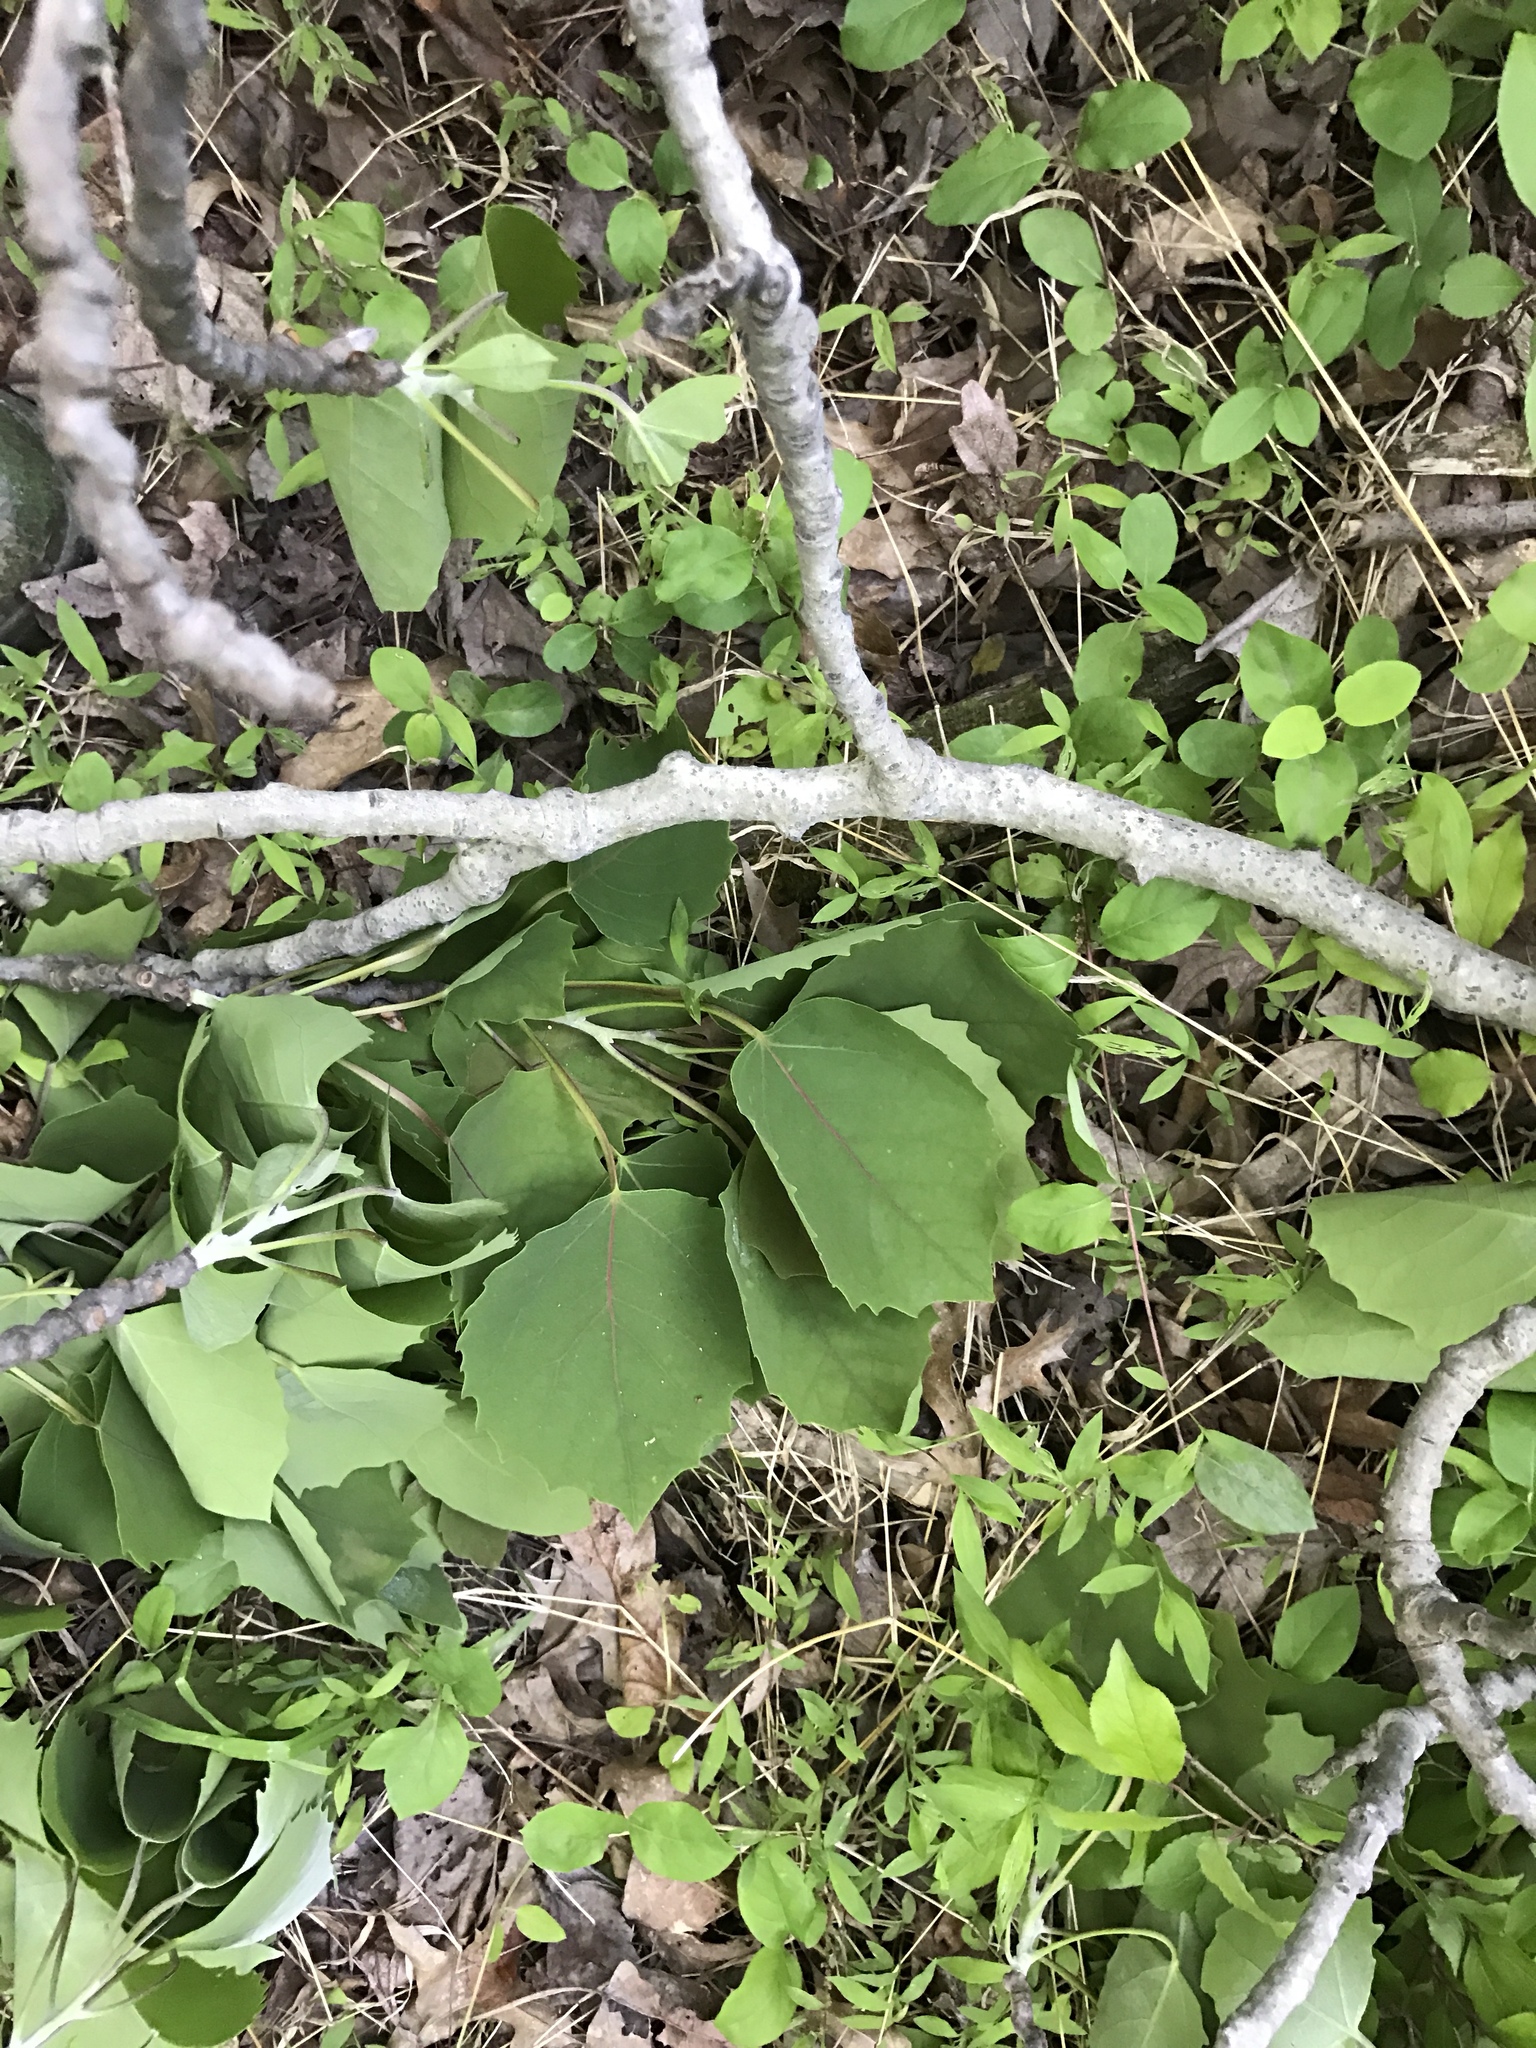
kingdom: Plantae
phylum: Tracheophyta
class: Magnoliopsida
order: Malpighiales
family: Salicaceae
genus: Populus
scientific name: Populus grandidentata
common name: Bigtooth aspen
